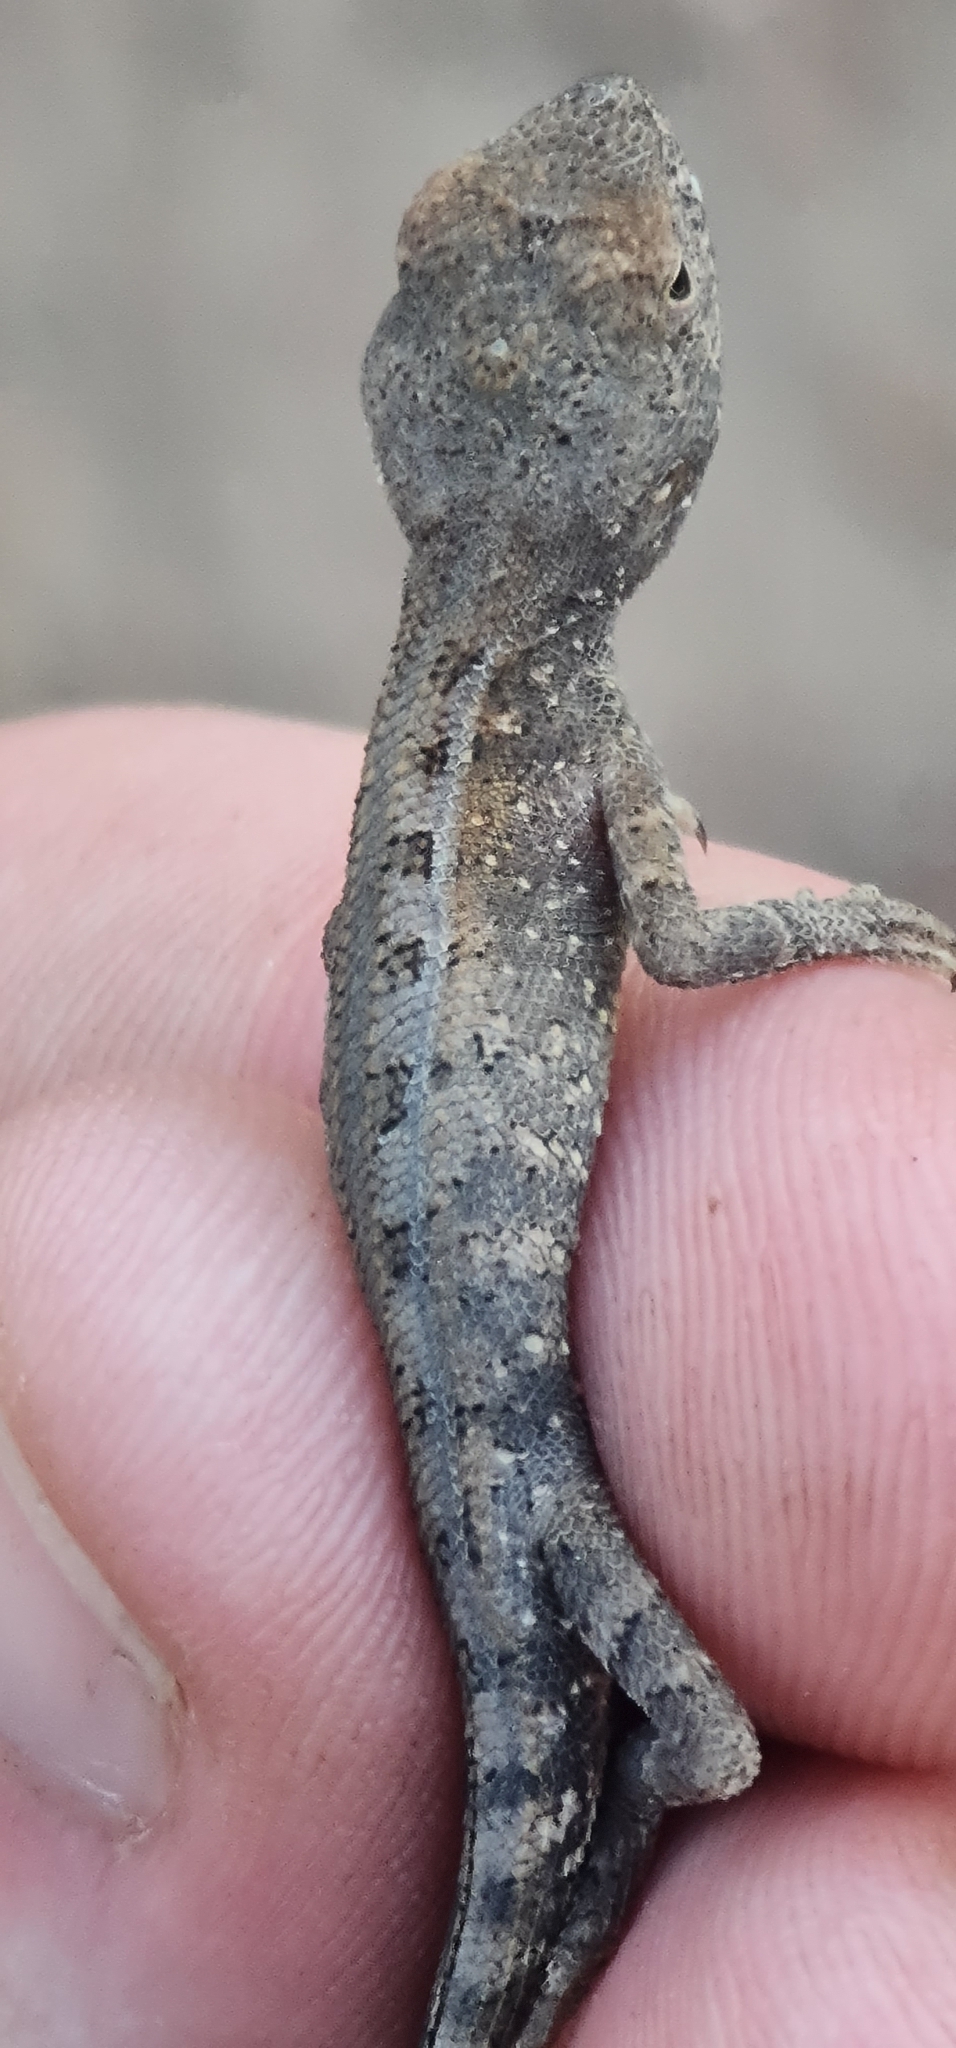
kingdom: Animalia
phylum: Chordata
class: Squamata
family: Agamidae
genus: Diporiphora
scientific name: Diporiphora bilineata
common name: Northern two-line dragon
